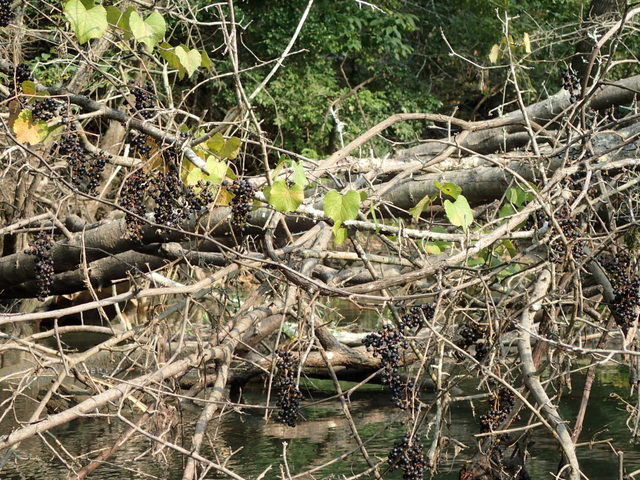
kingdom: Plantae
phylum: Tracheophyta
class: Magnoliopsida
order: Vitales
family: Vitaceae
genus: Vitis
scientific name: Vitis vulpina
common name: Frost grape
